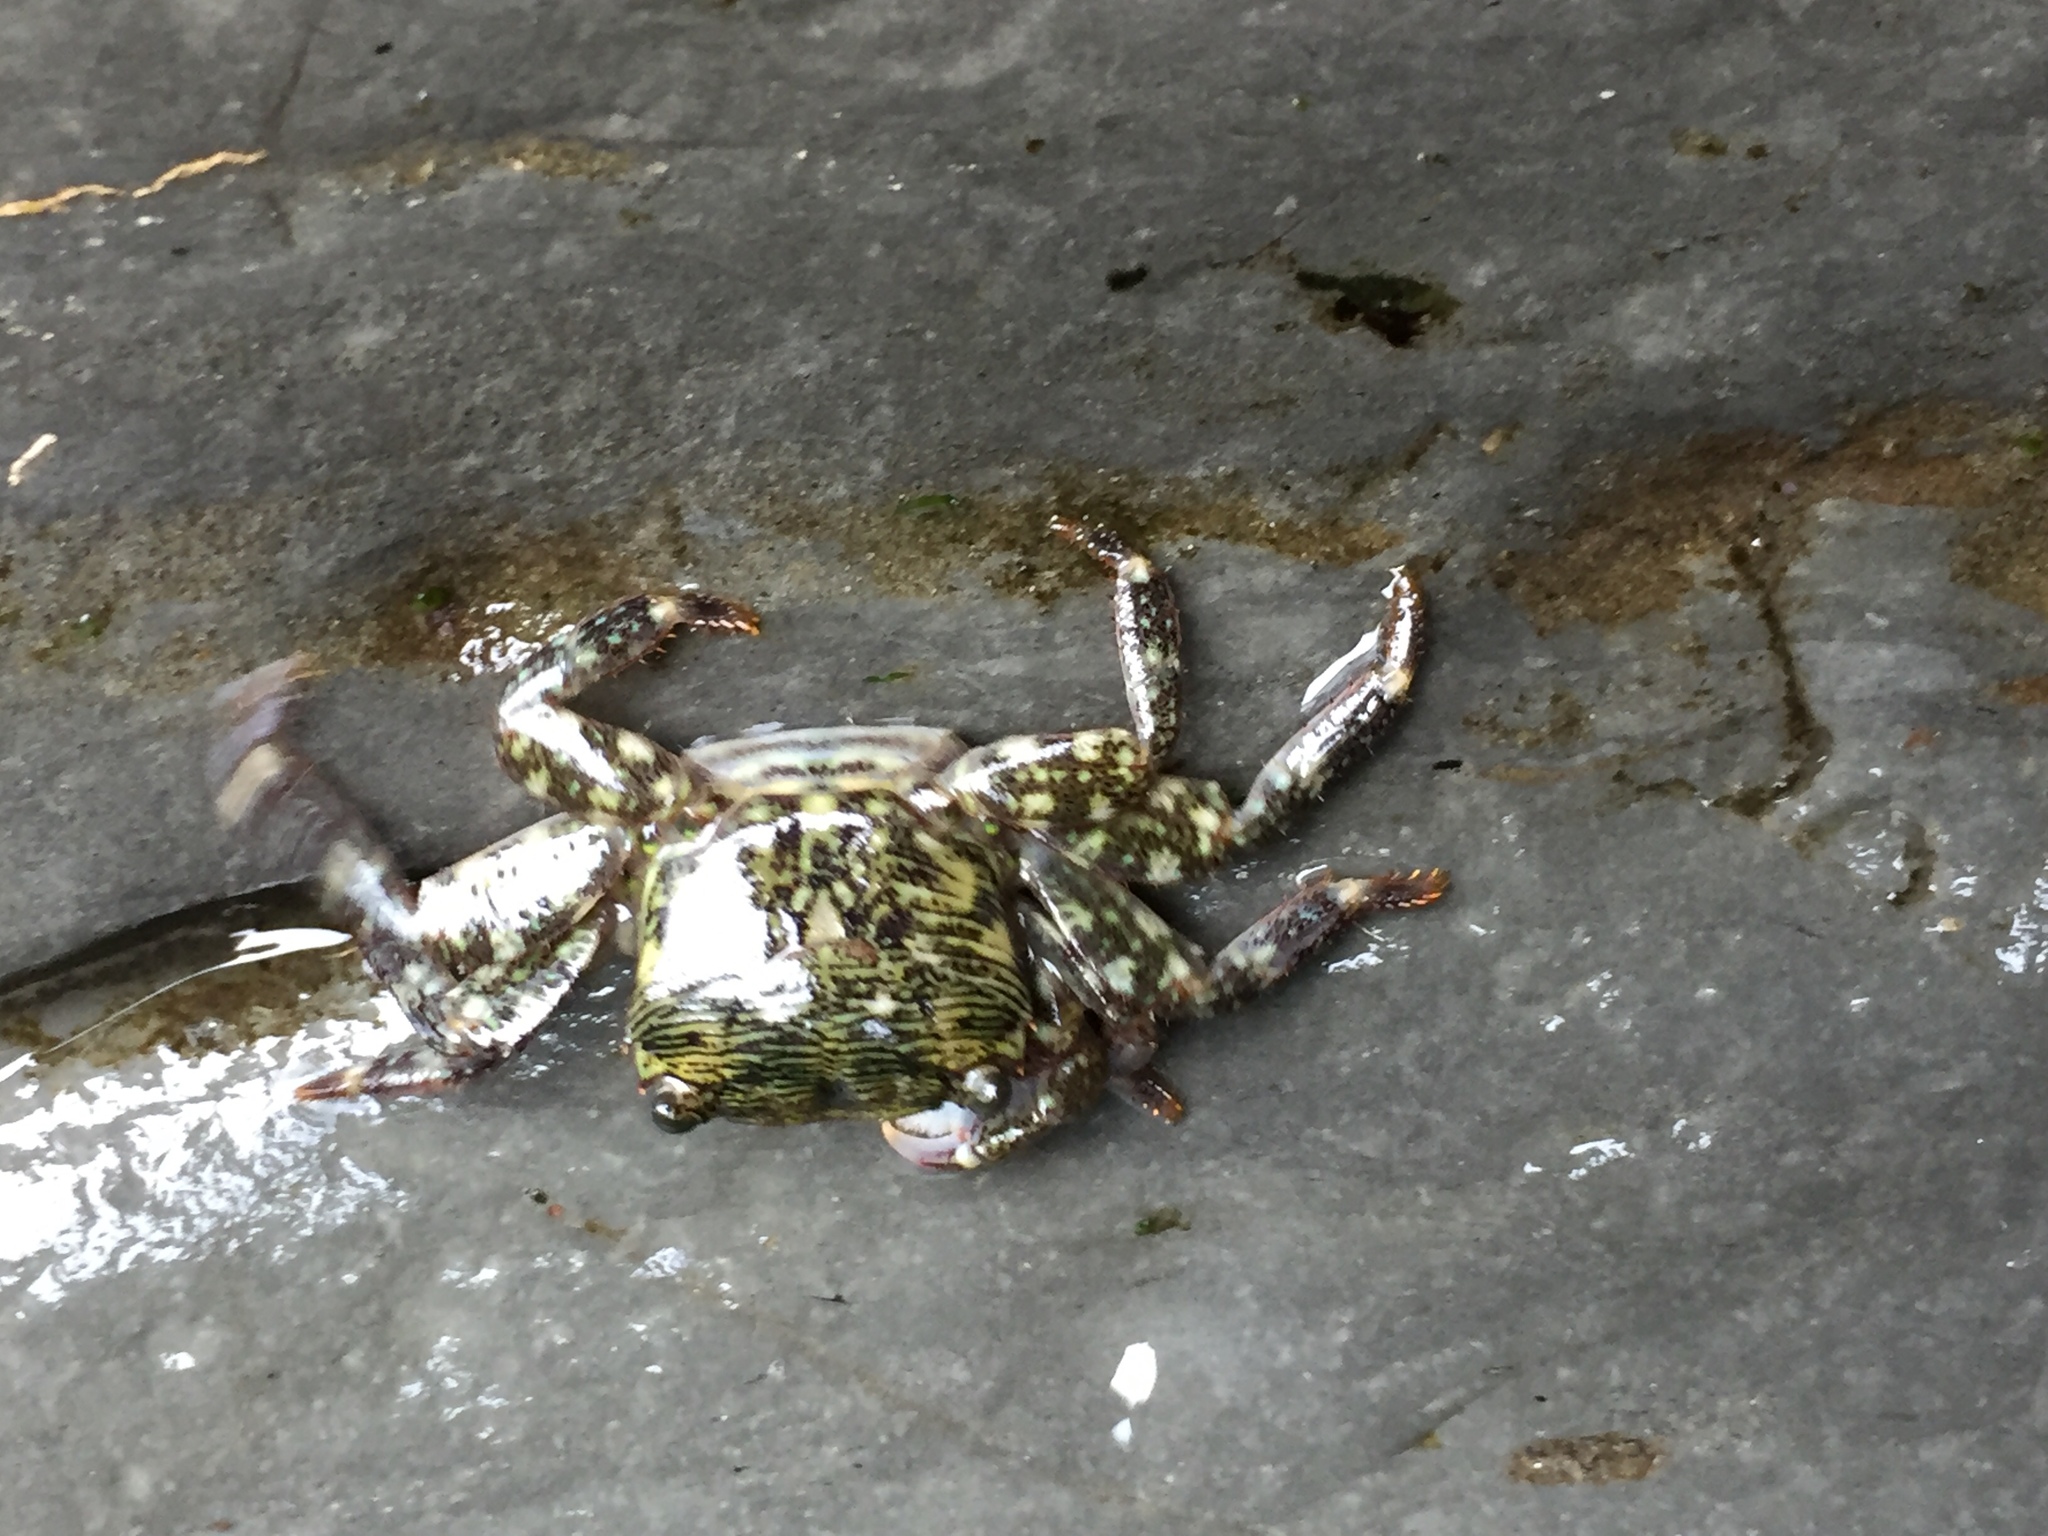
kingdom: Animalia
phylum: Arthropoda
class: Malacostraca
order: Decapoda
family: Grapsidae
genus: Pachygrapsus
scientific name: Pachygrapsus crassipes
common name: Striped shore crab
